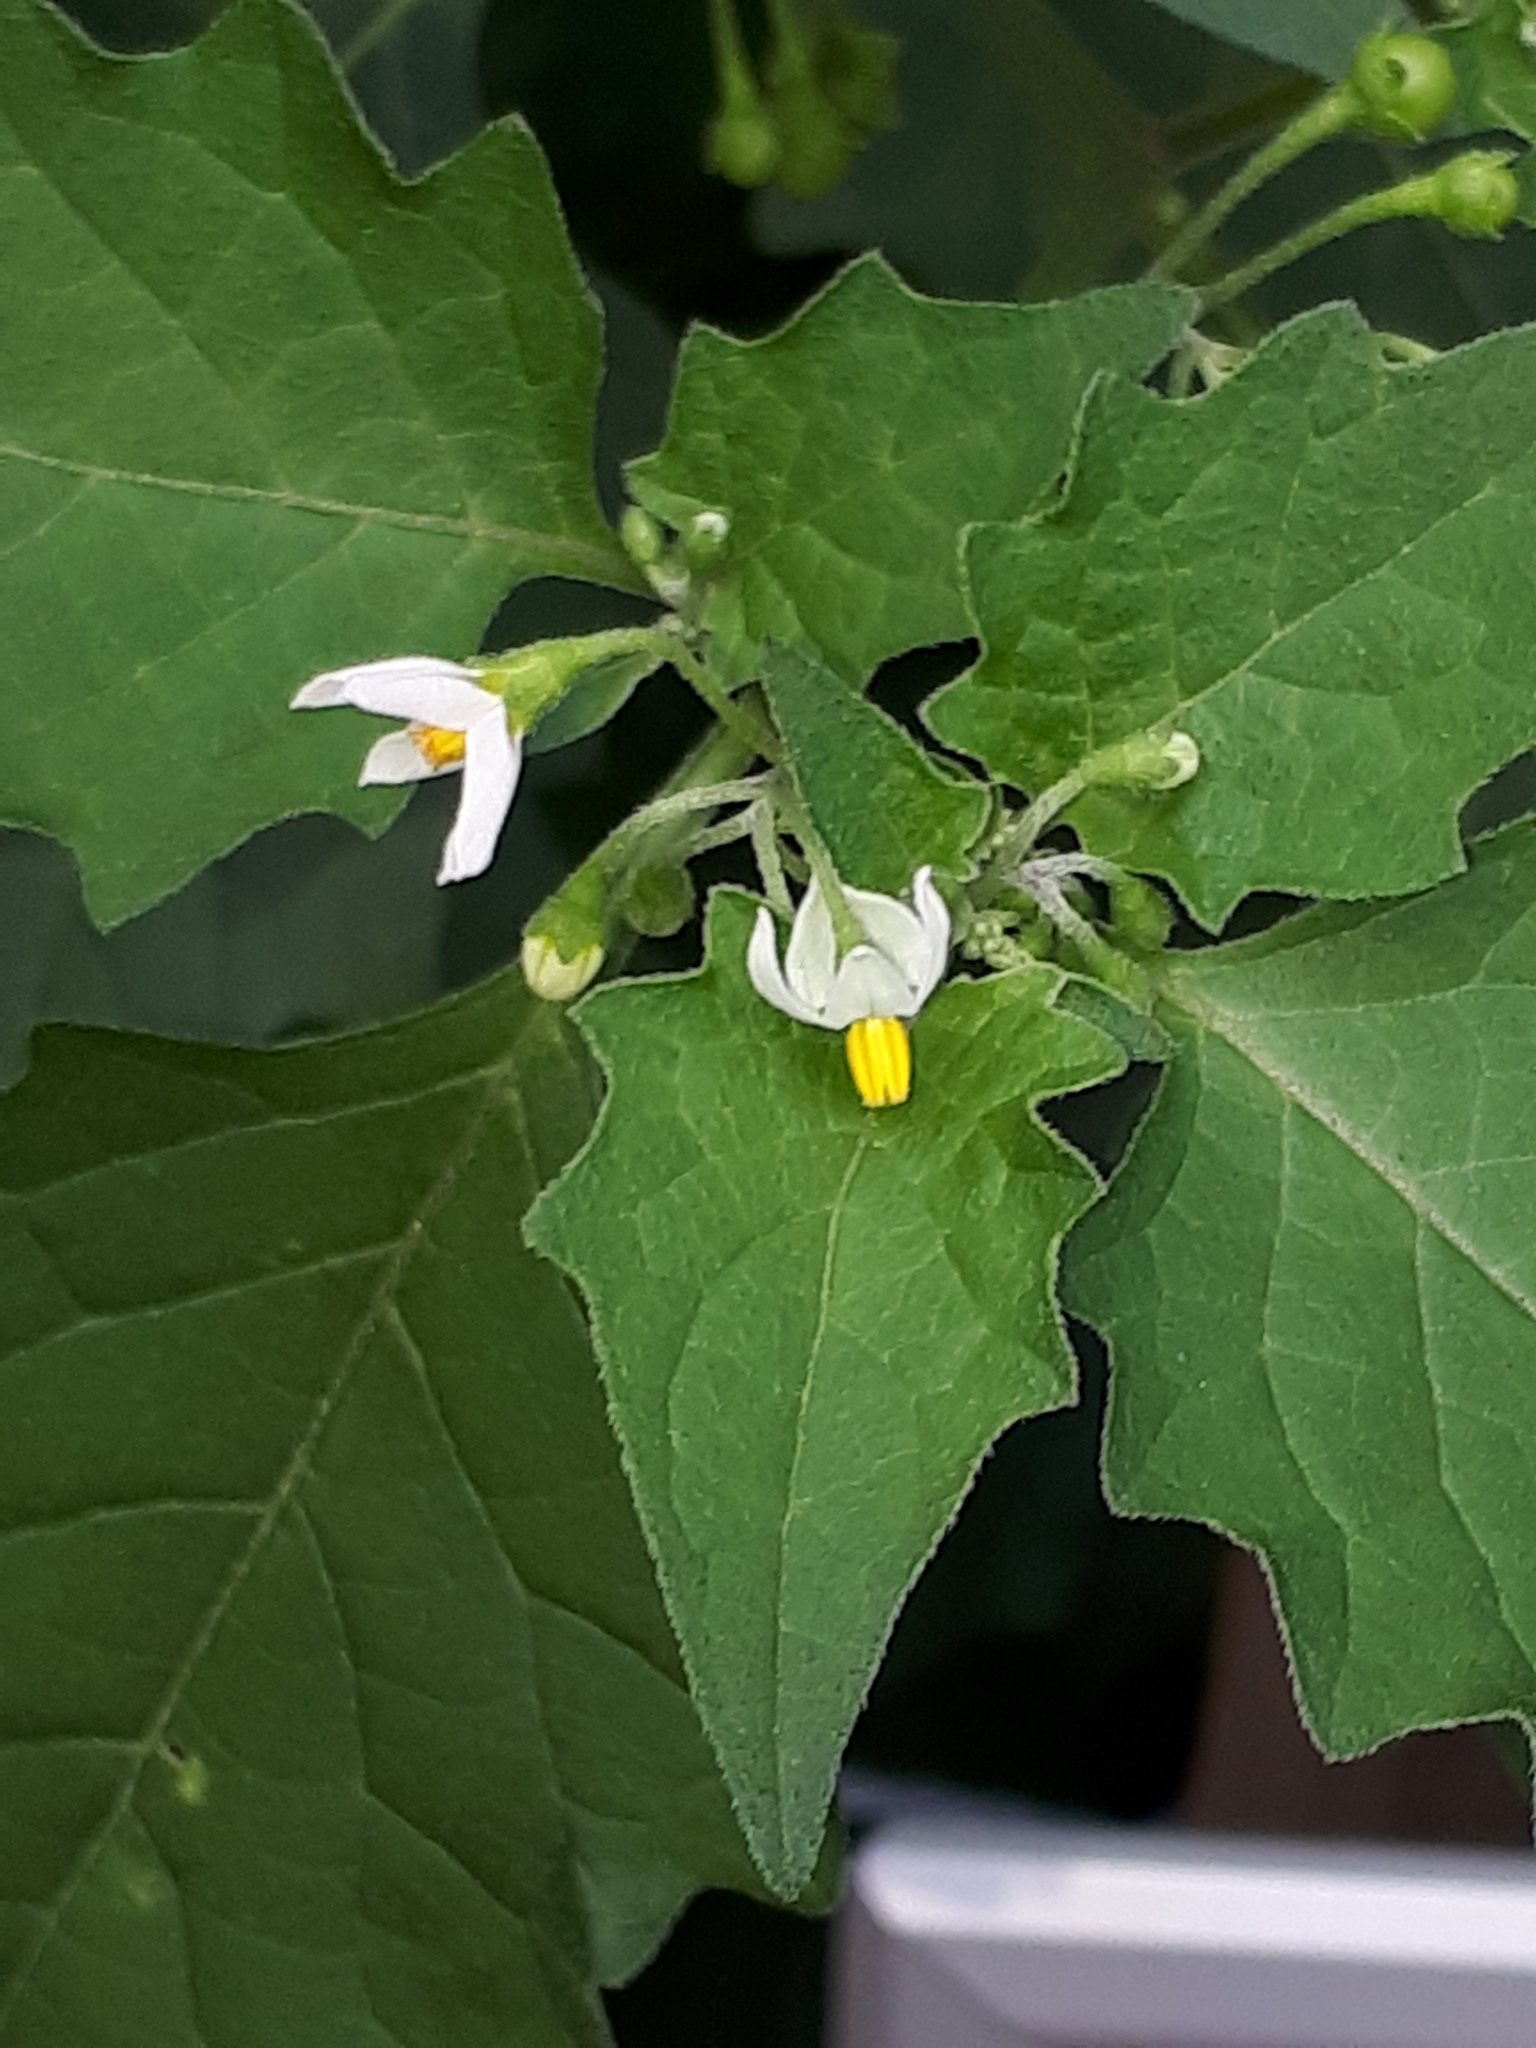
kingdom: Plantae
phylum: Tracheophyta
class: Magnoliopsida
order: Solanales
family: Solanaceae
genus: Solanum
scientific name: Solanum nigrum
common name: Black nightshade
